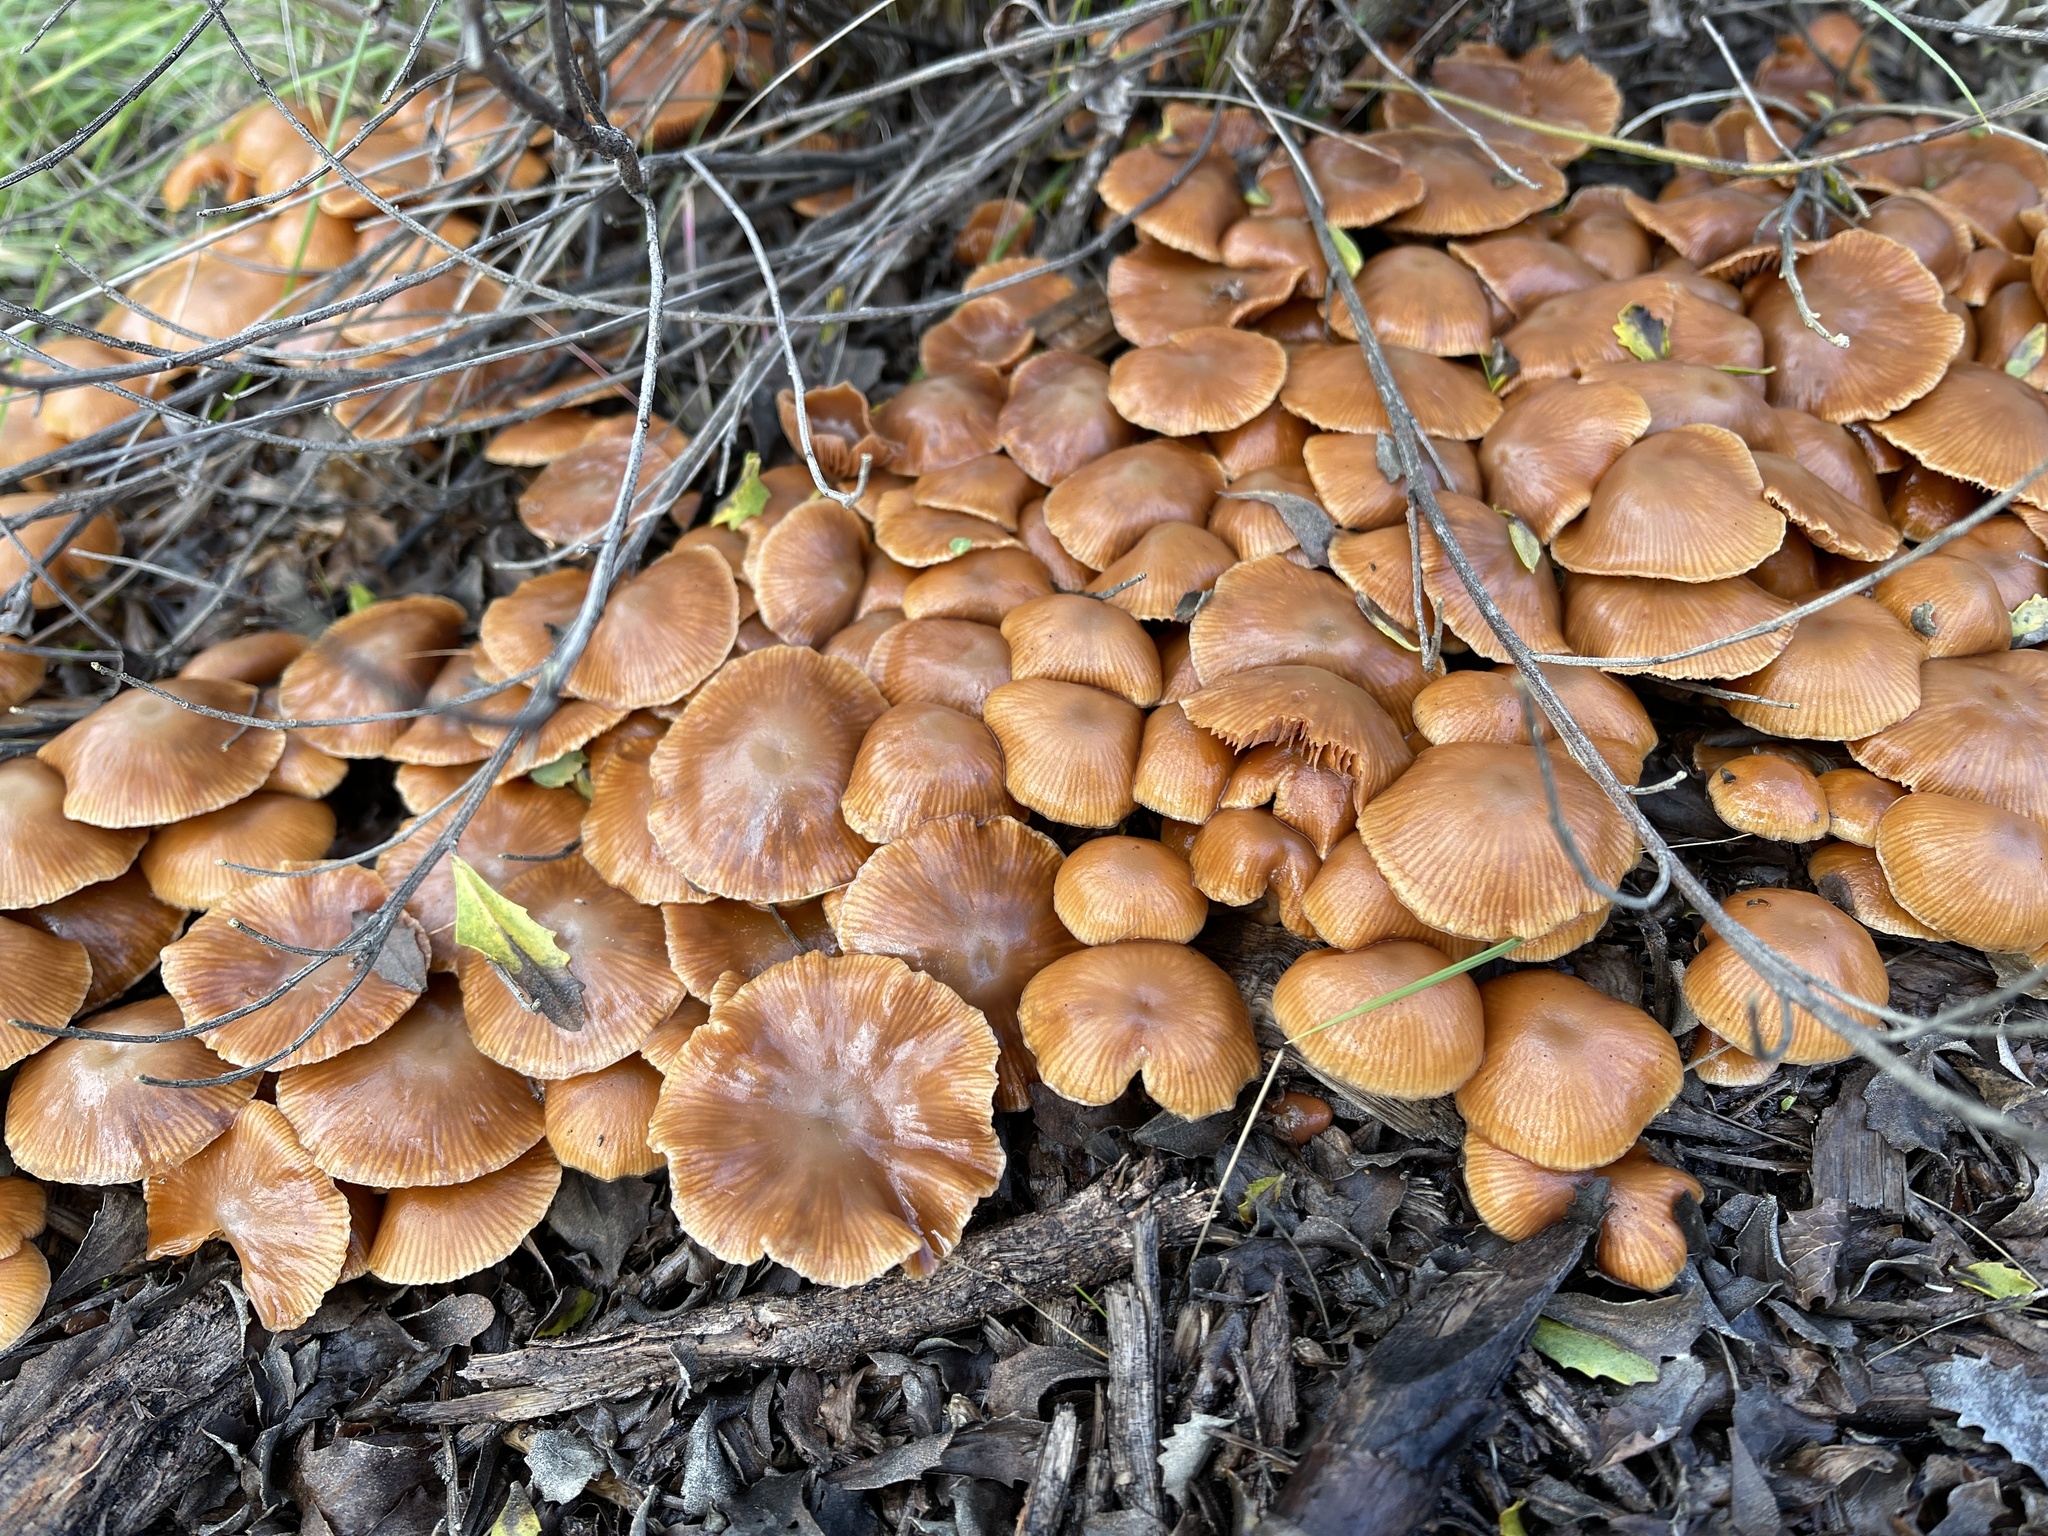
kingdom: Fungi
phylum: Basidiomycota
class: Agaricomycetes
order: Agaricales
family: Tubariaceae
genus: Tubaria
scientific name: Tubaria furfuracea
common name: Scurfy twiglet
